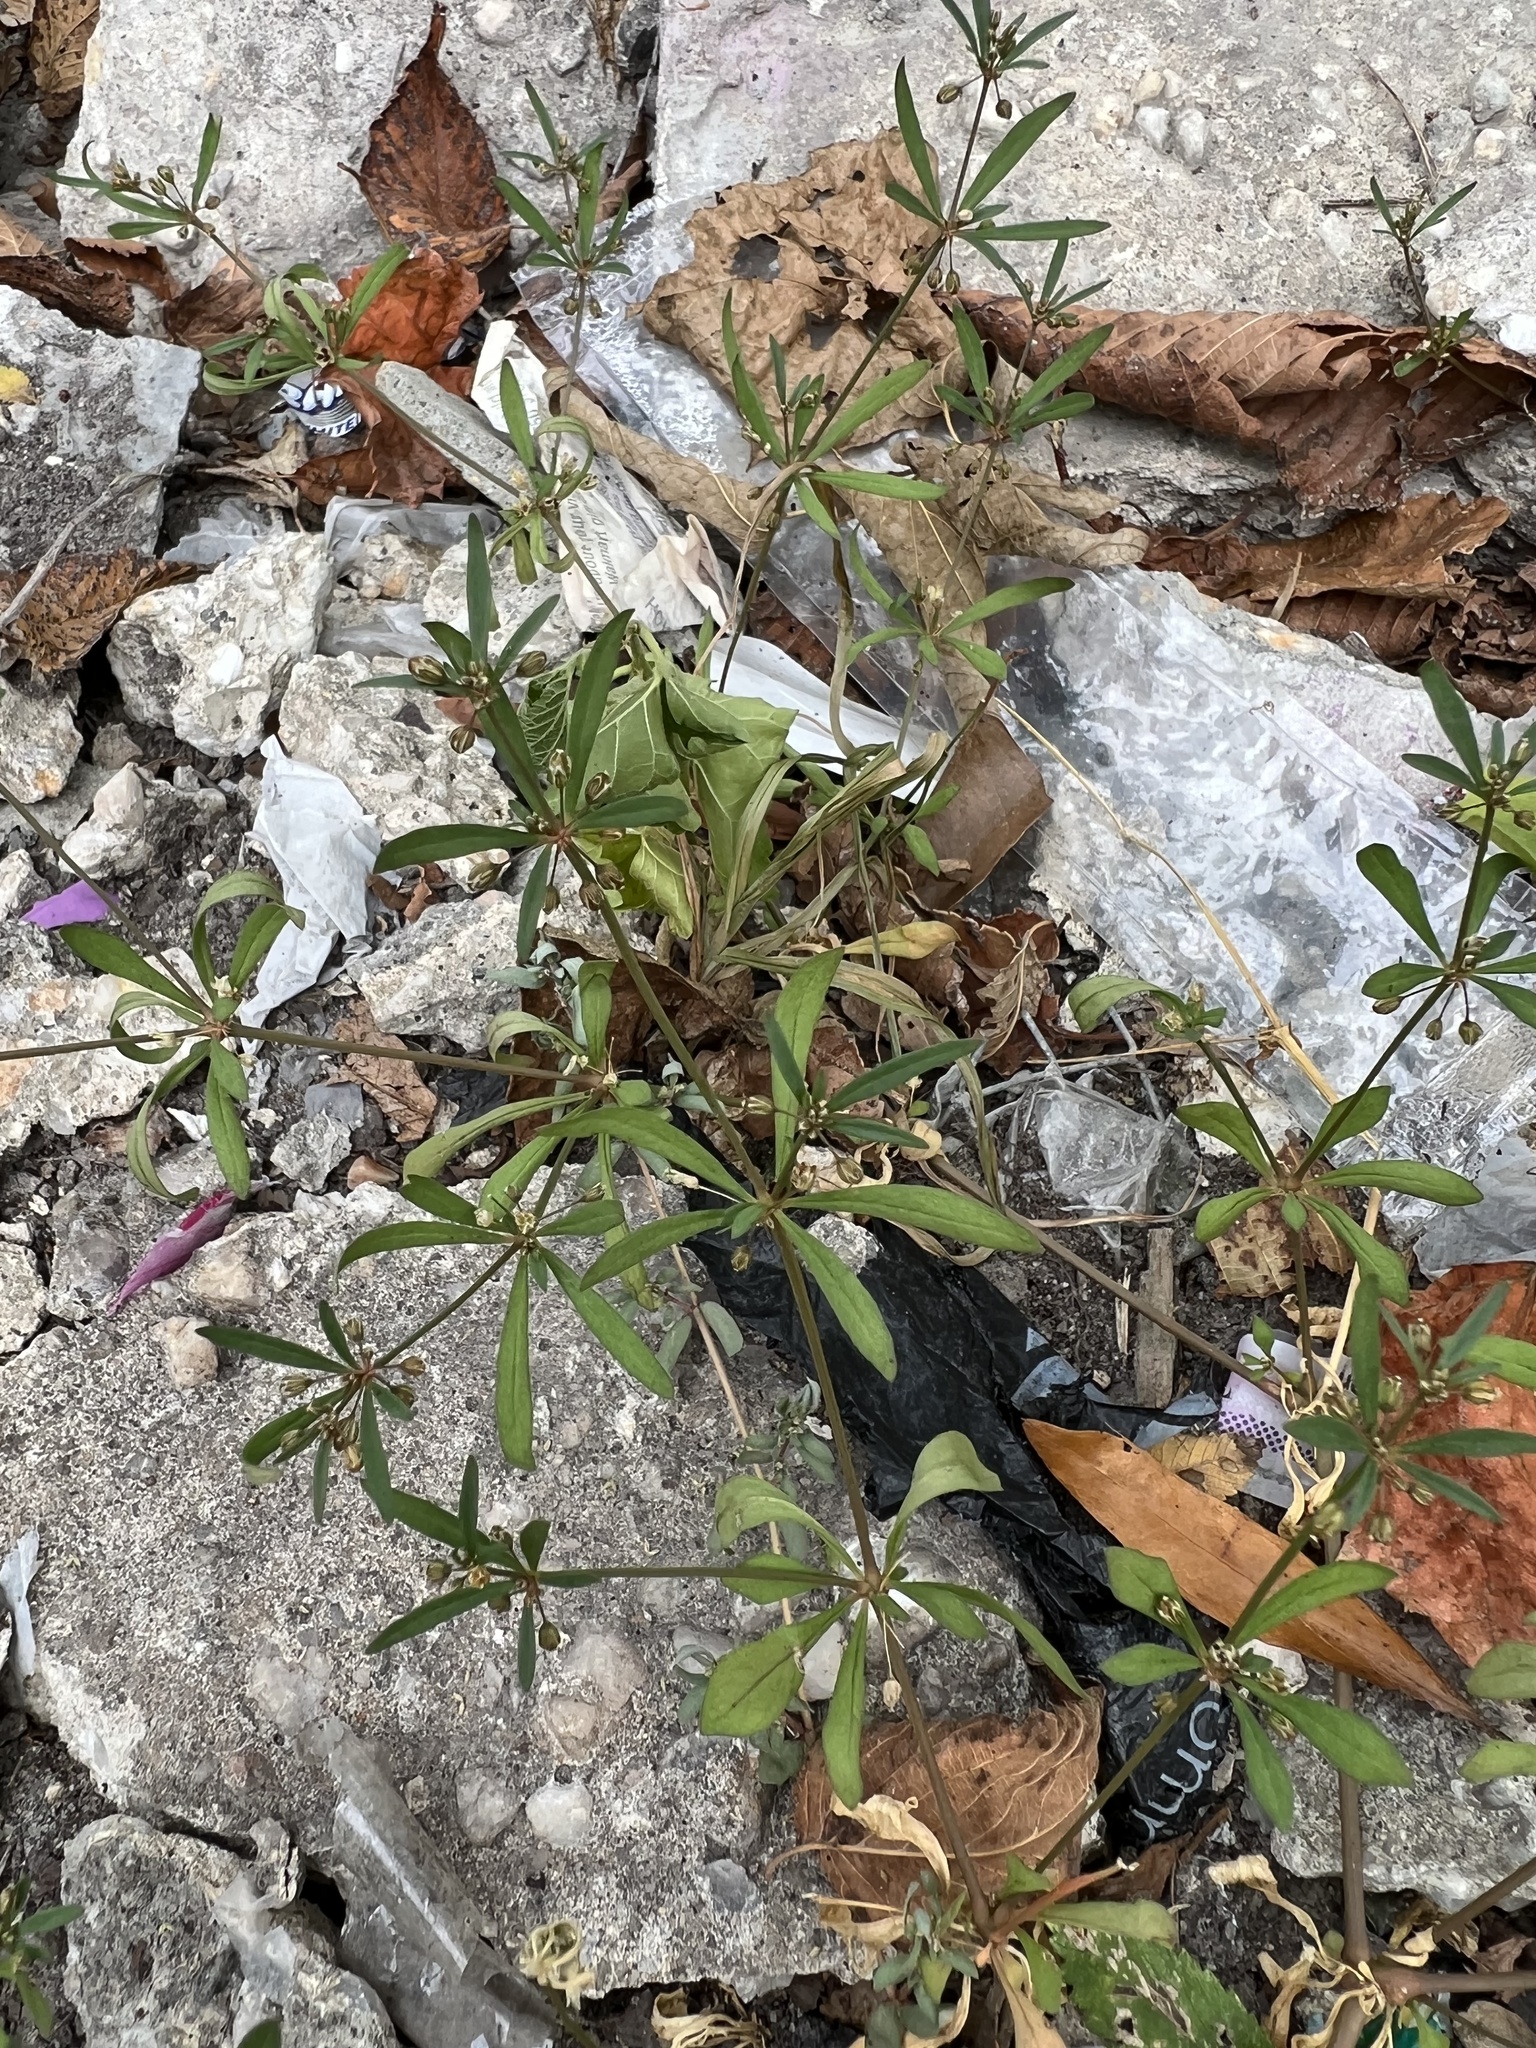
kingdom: Plantae
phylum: Tracheophyta
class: Magnoliopsida
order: Caryophyllales
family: Molluginaceae
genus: Mollugo
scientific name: Mollugo verticillata
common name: Green carpetweed
